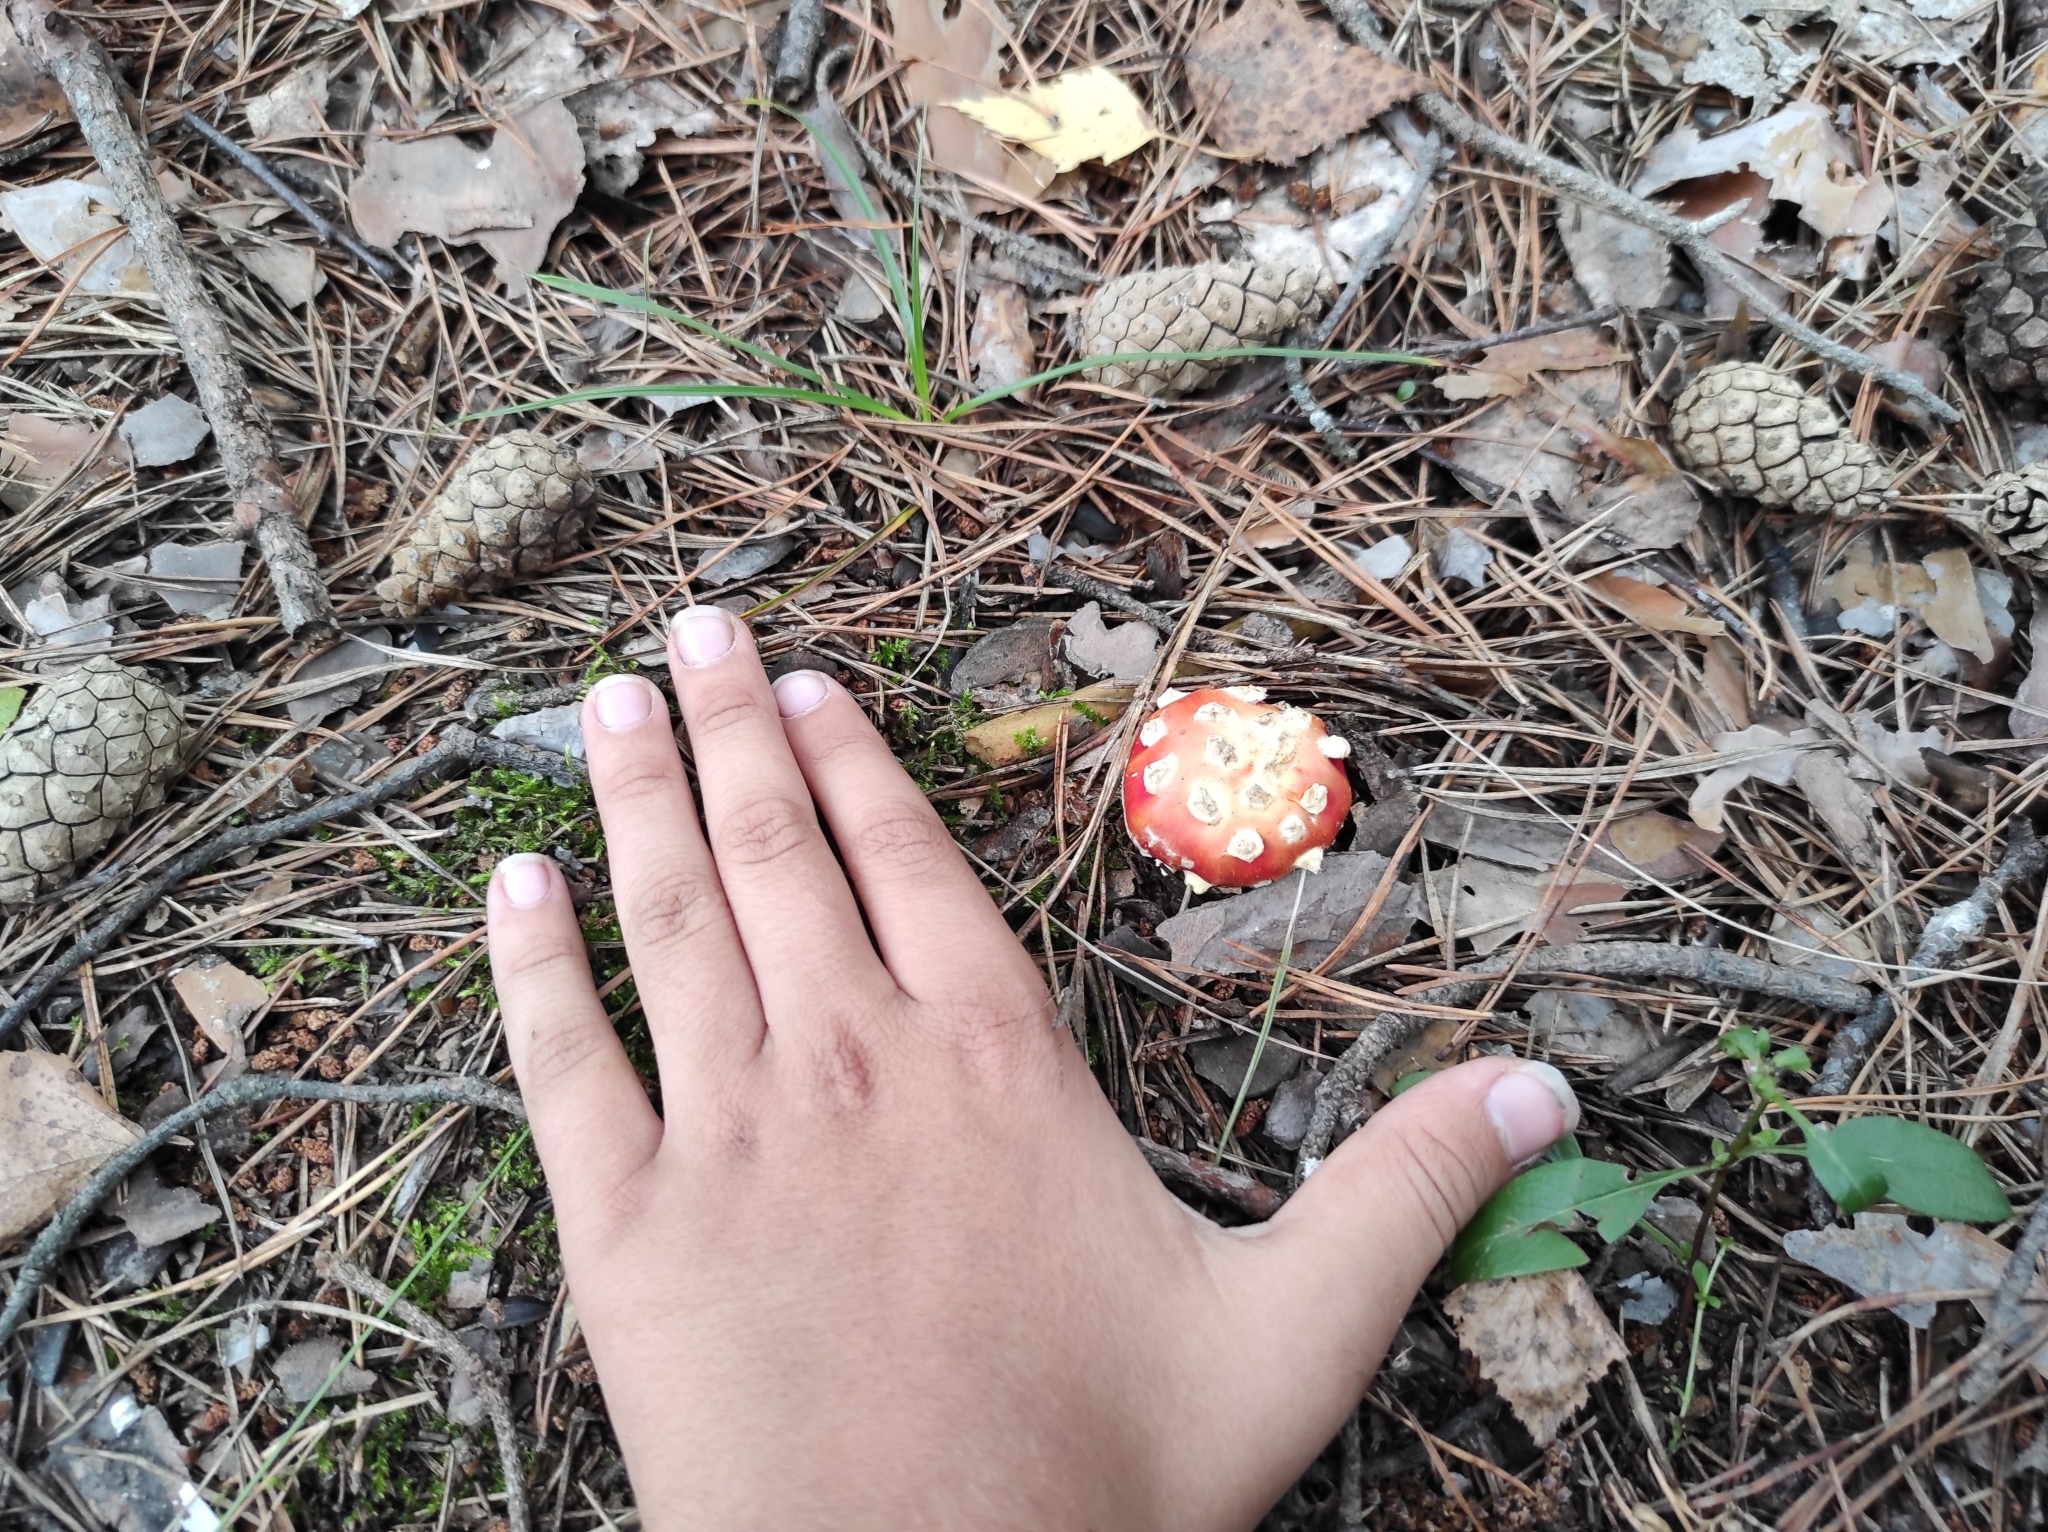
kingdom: Fungi
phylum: Basidiomycota
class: Agaricomycetes
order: Agaricales
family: Amanitaceae
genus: Amanita
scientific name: Amanita muscaria
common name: Fly agaric
